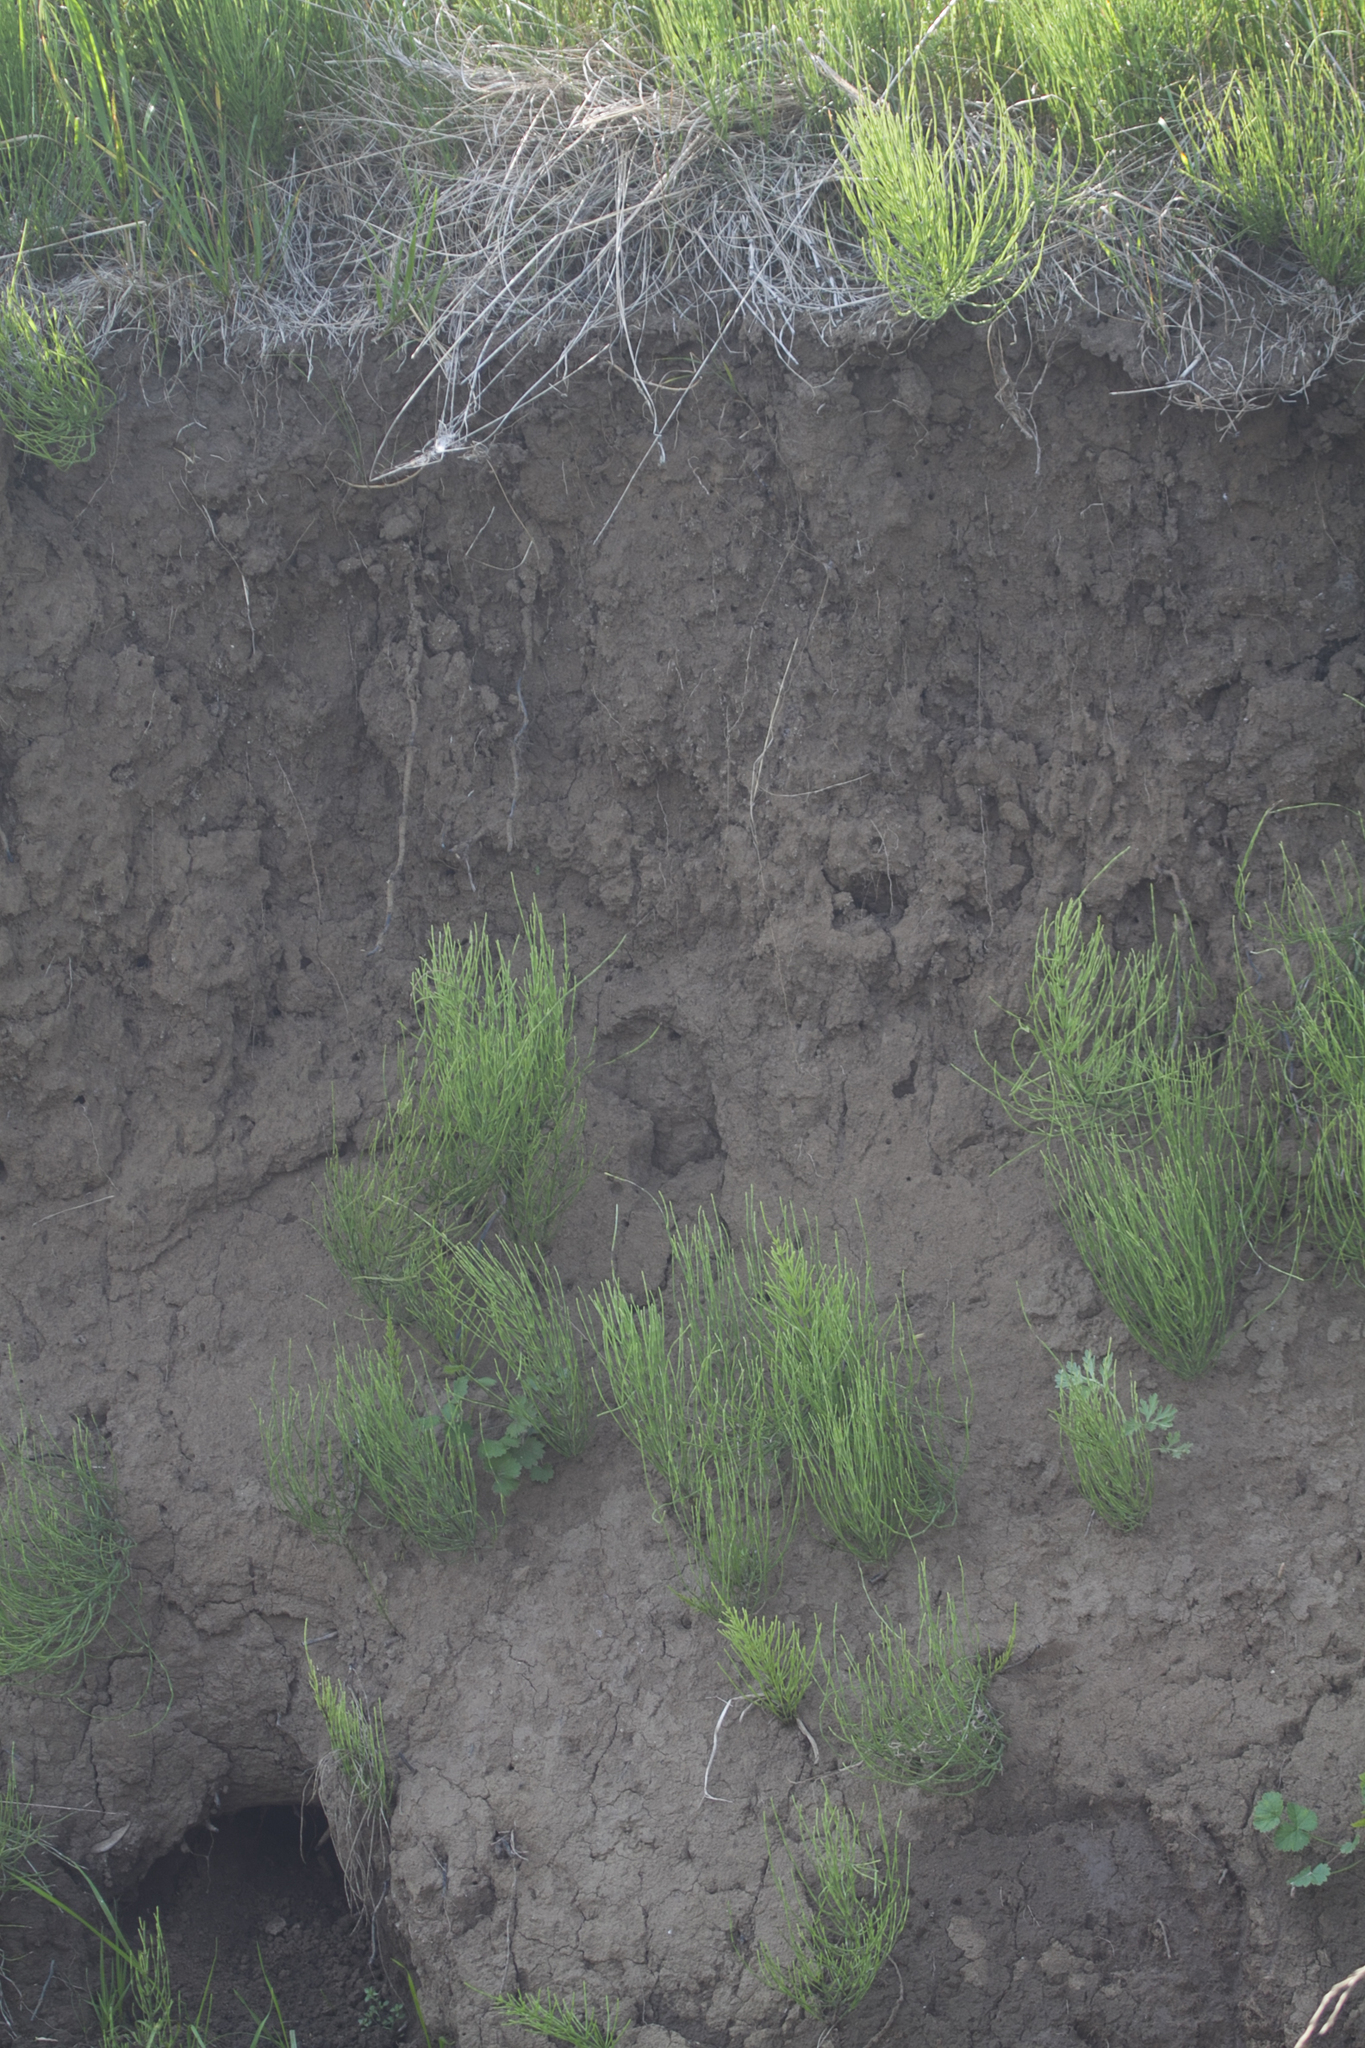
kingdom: Plantae
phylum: Tracheophyta
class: Polypodiopsida
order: Equisetales
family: Equisetaceae
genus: Equisetum
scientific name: Equisetum arvense
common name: Field horsetail
